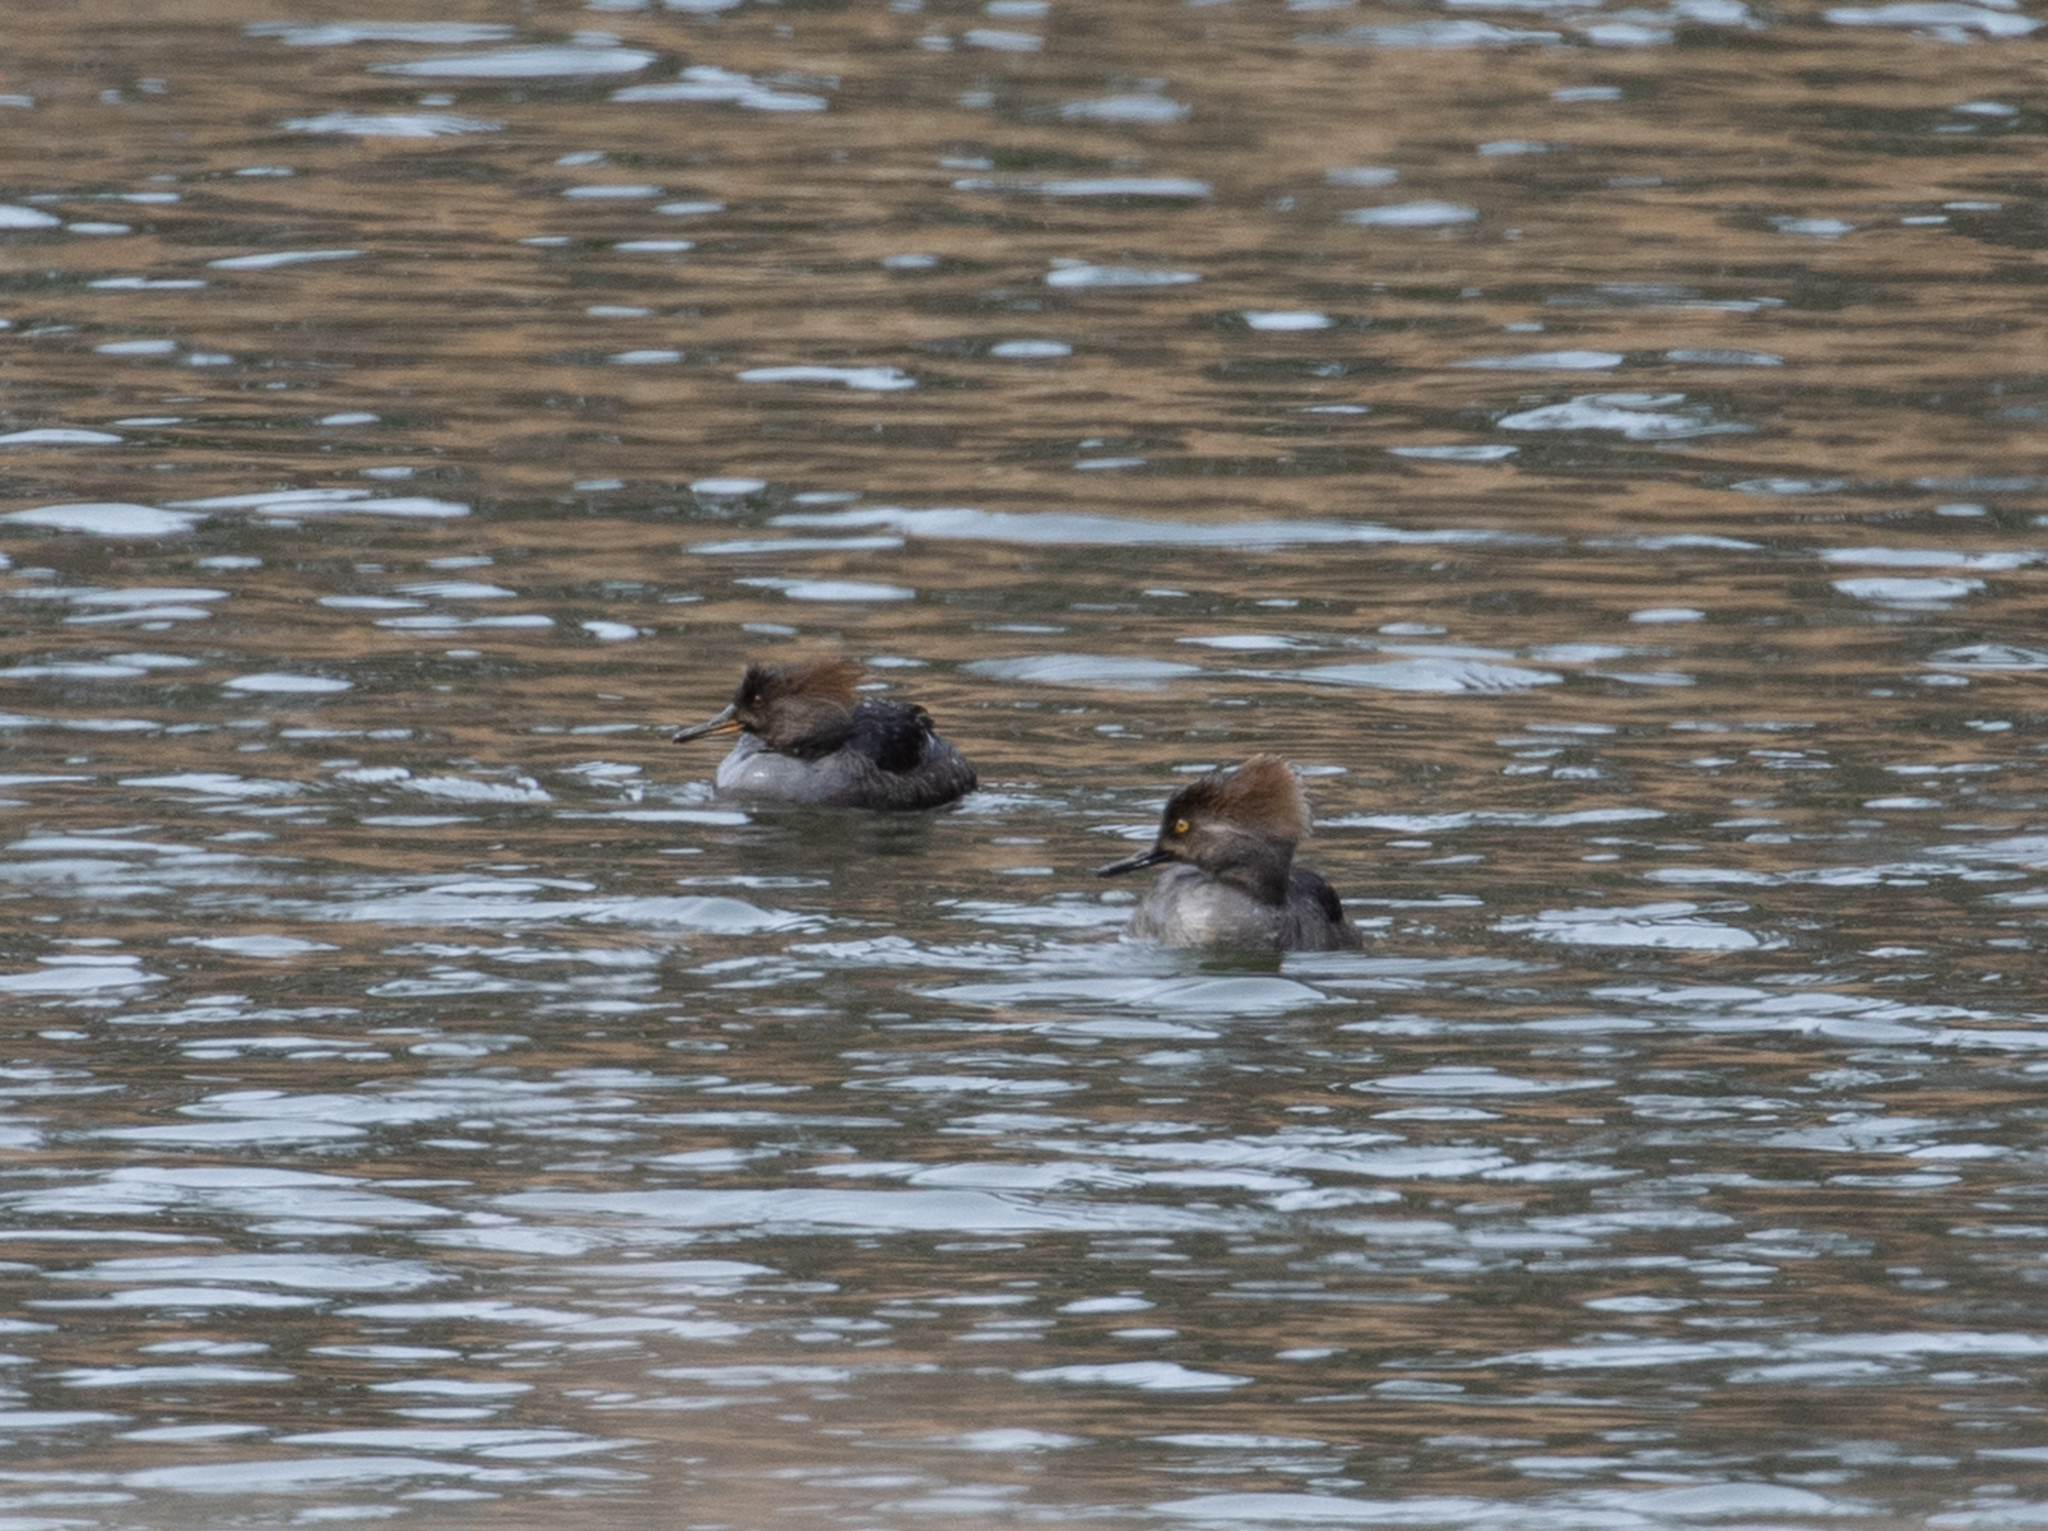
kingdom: Animalia
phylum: Chordata
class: Aves
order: Anseriformes
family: Anatidae
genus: Lophodytes
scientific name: Lophodytes cucullatus
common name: Hooded merganser
